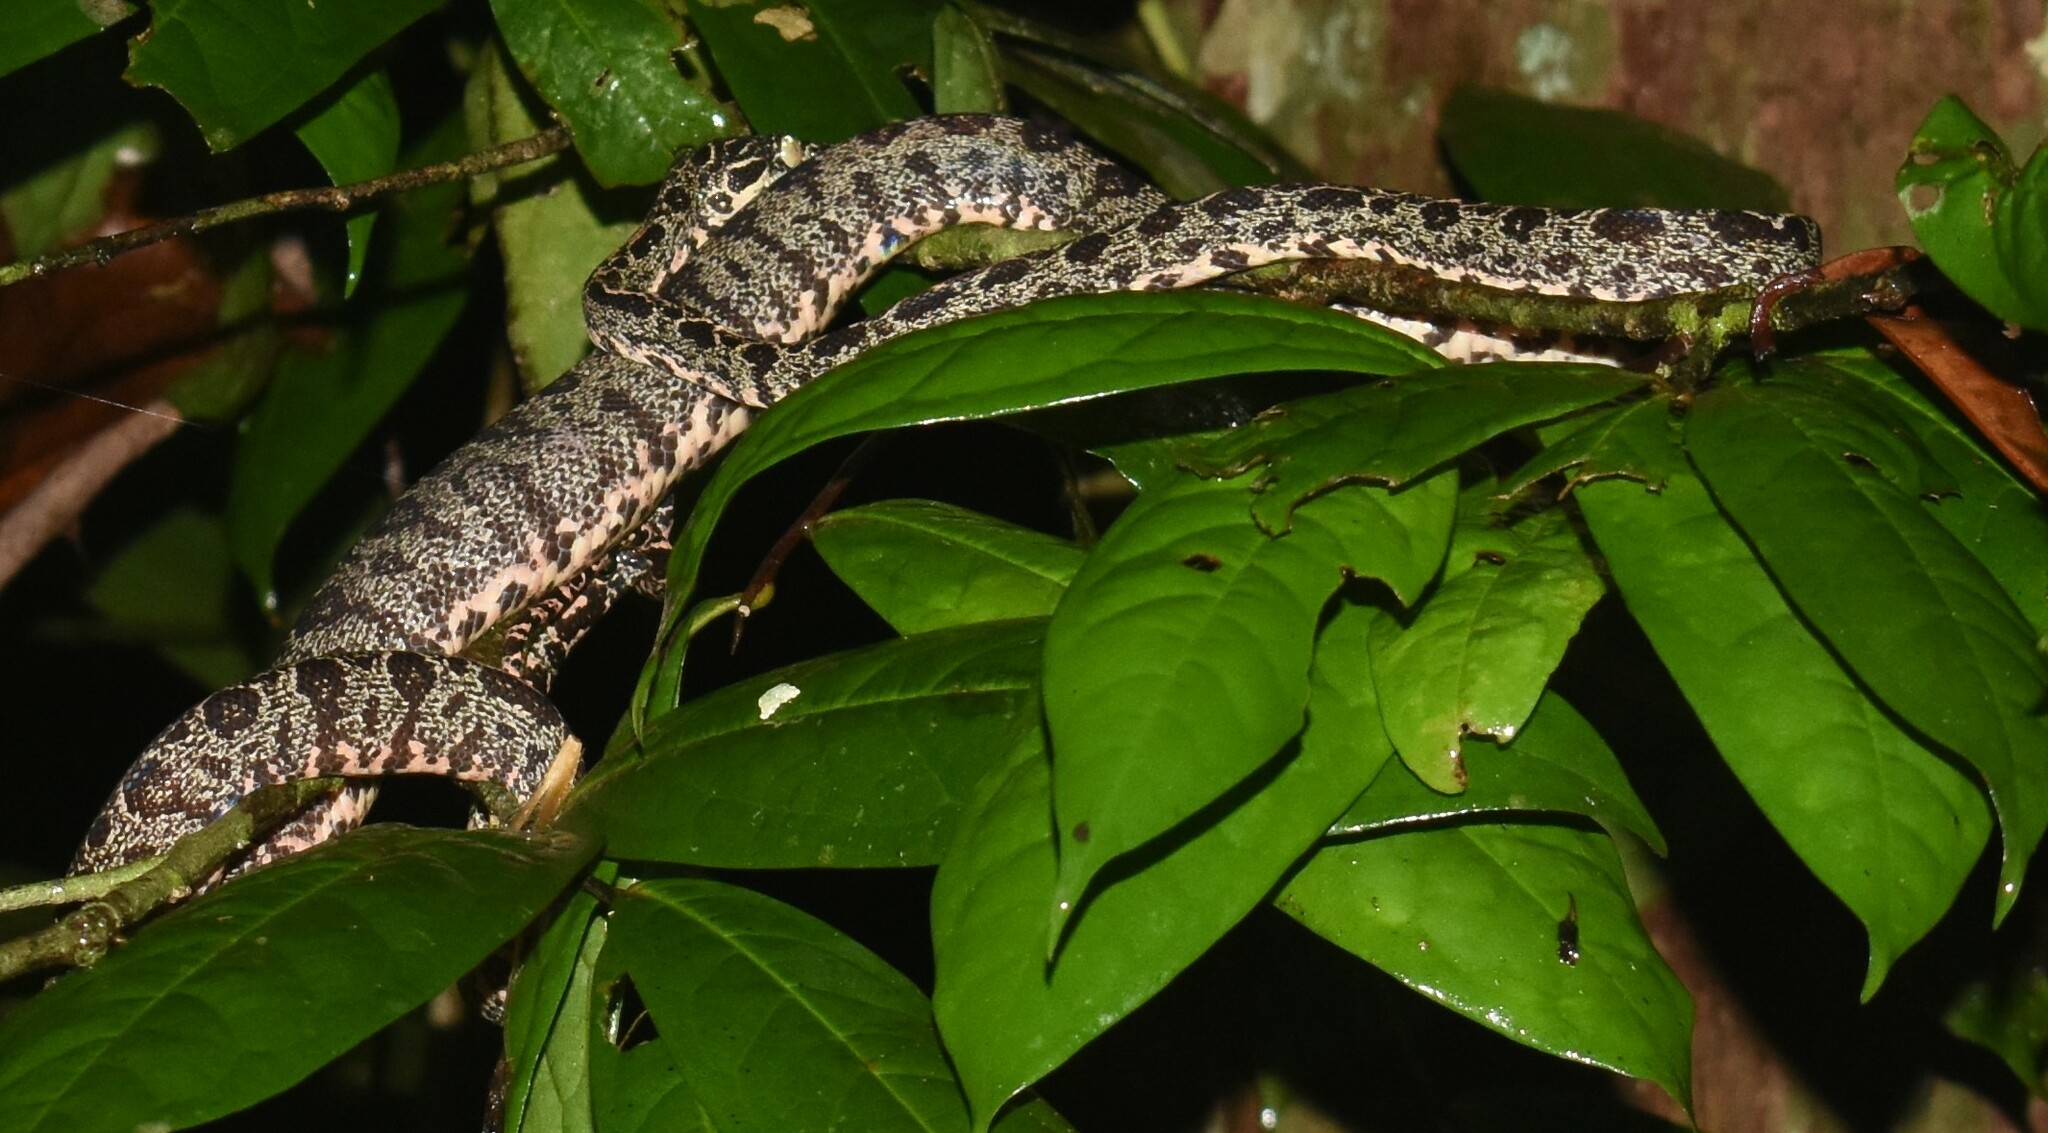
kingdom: Animalia
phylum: Chordata
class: Squamata
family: Boidae
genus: Corallus
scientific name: Corallus hortulana
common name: Garden tree boa
